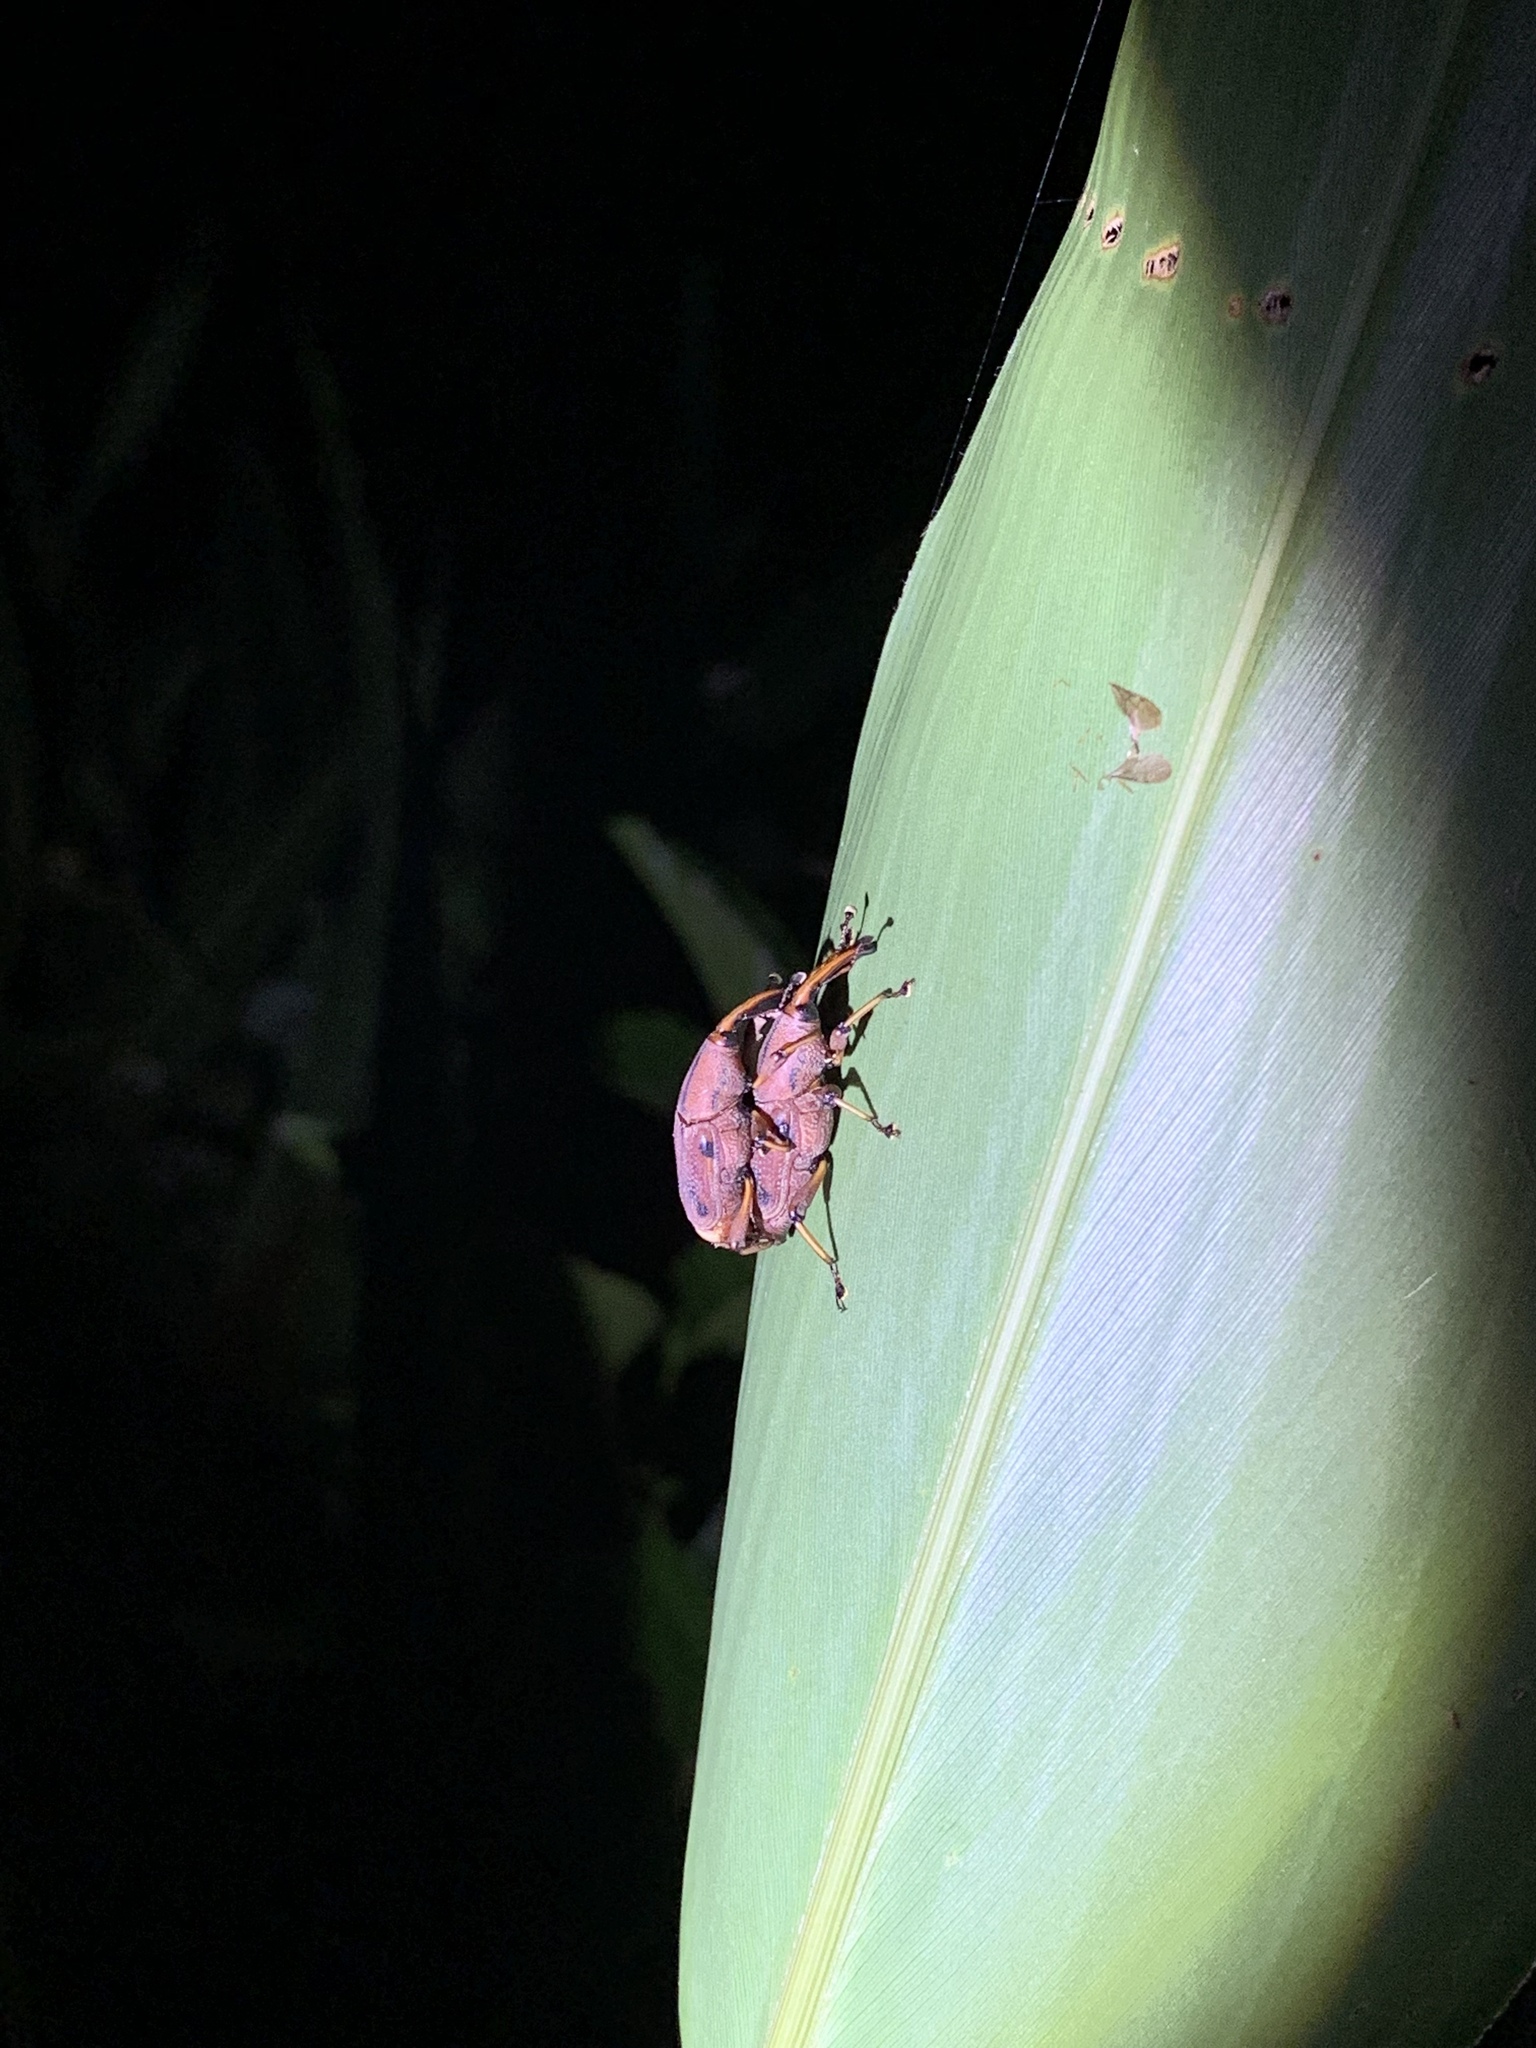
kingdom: Animalia
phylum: Arthropoda
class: Insecta
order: Coleoptera
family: Dryophthoridae
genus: Prodioctes
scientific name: Prodioctes formosanus
